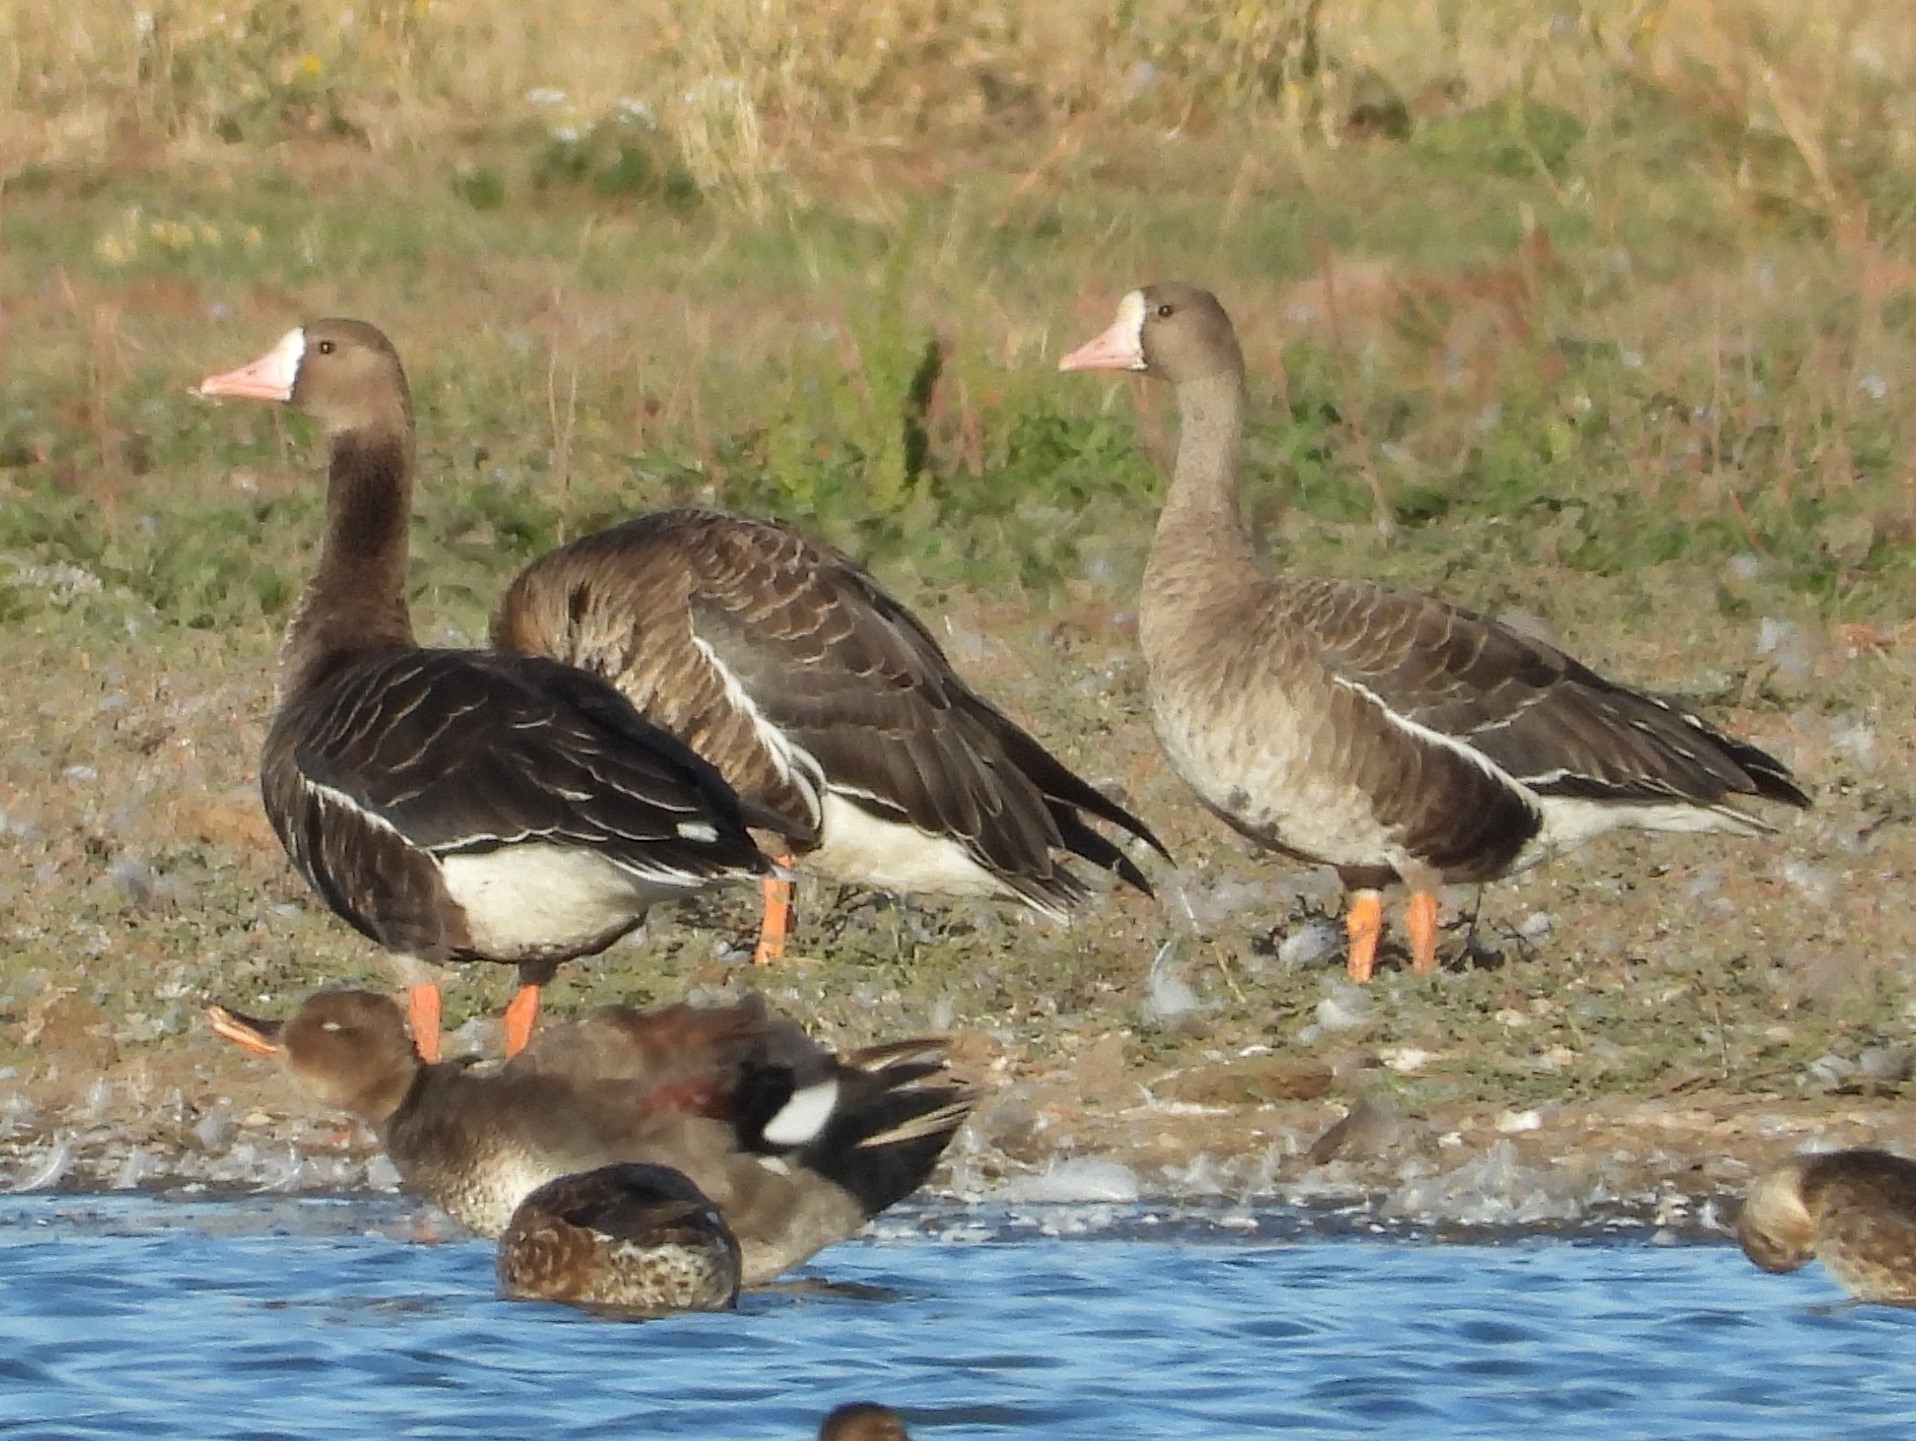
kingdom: Animalia
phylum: Chordata
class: Aves
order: Anseriformes
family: Anatidae
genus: Anser
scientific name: Anser albifrons
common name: Greater white-fronted goose
